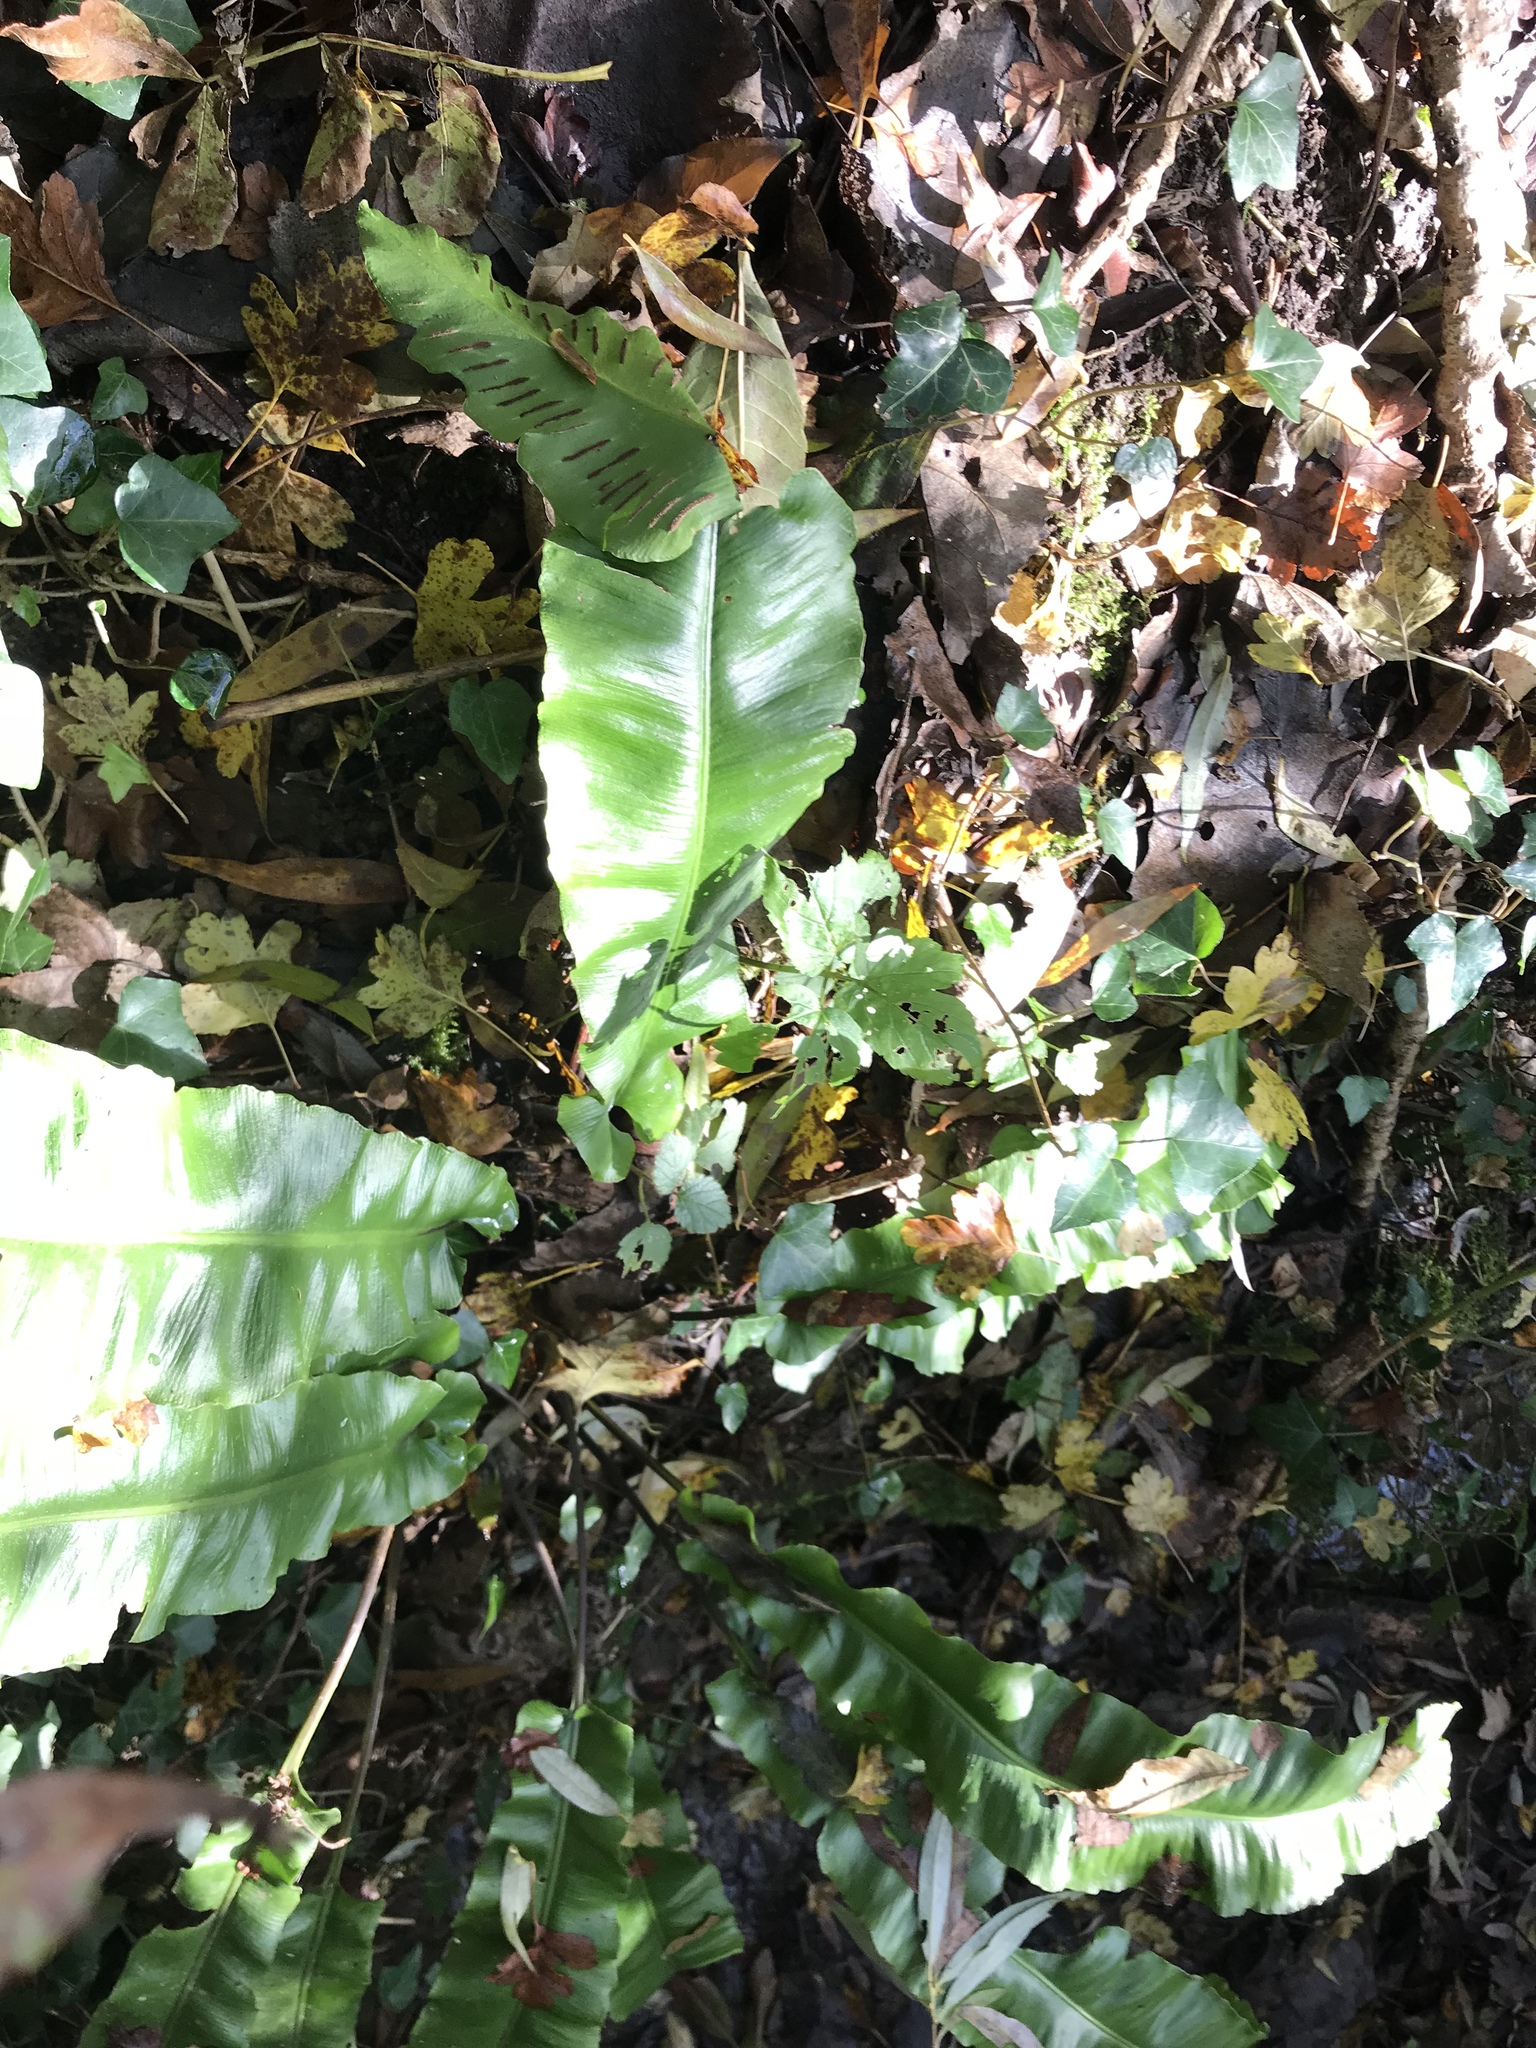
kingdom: Plantae
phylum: Tracheophyta
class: Polypodiopsida
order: Polypodiales
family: Aspleniaceae
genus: Asplenium
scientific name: Asplenium scolopendrium
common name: Hart's-tongue fern
